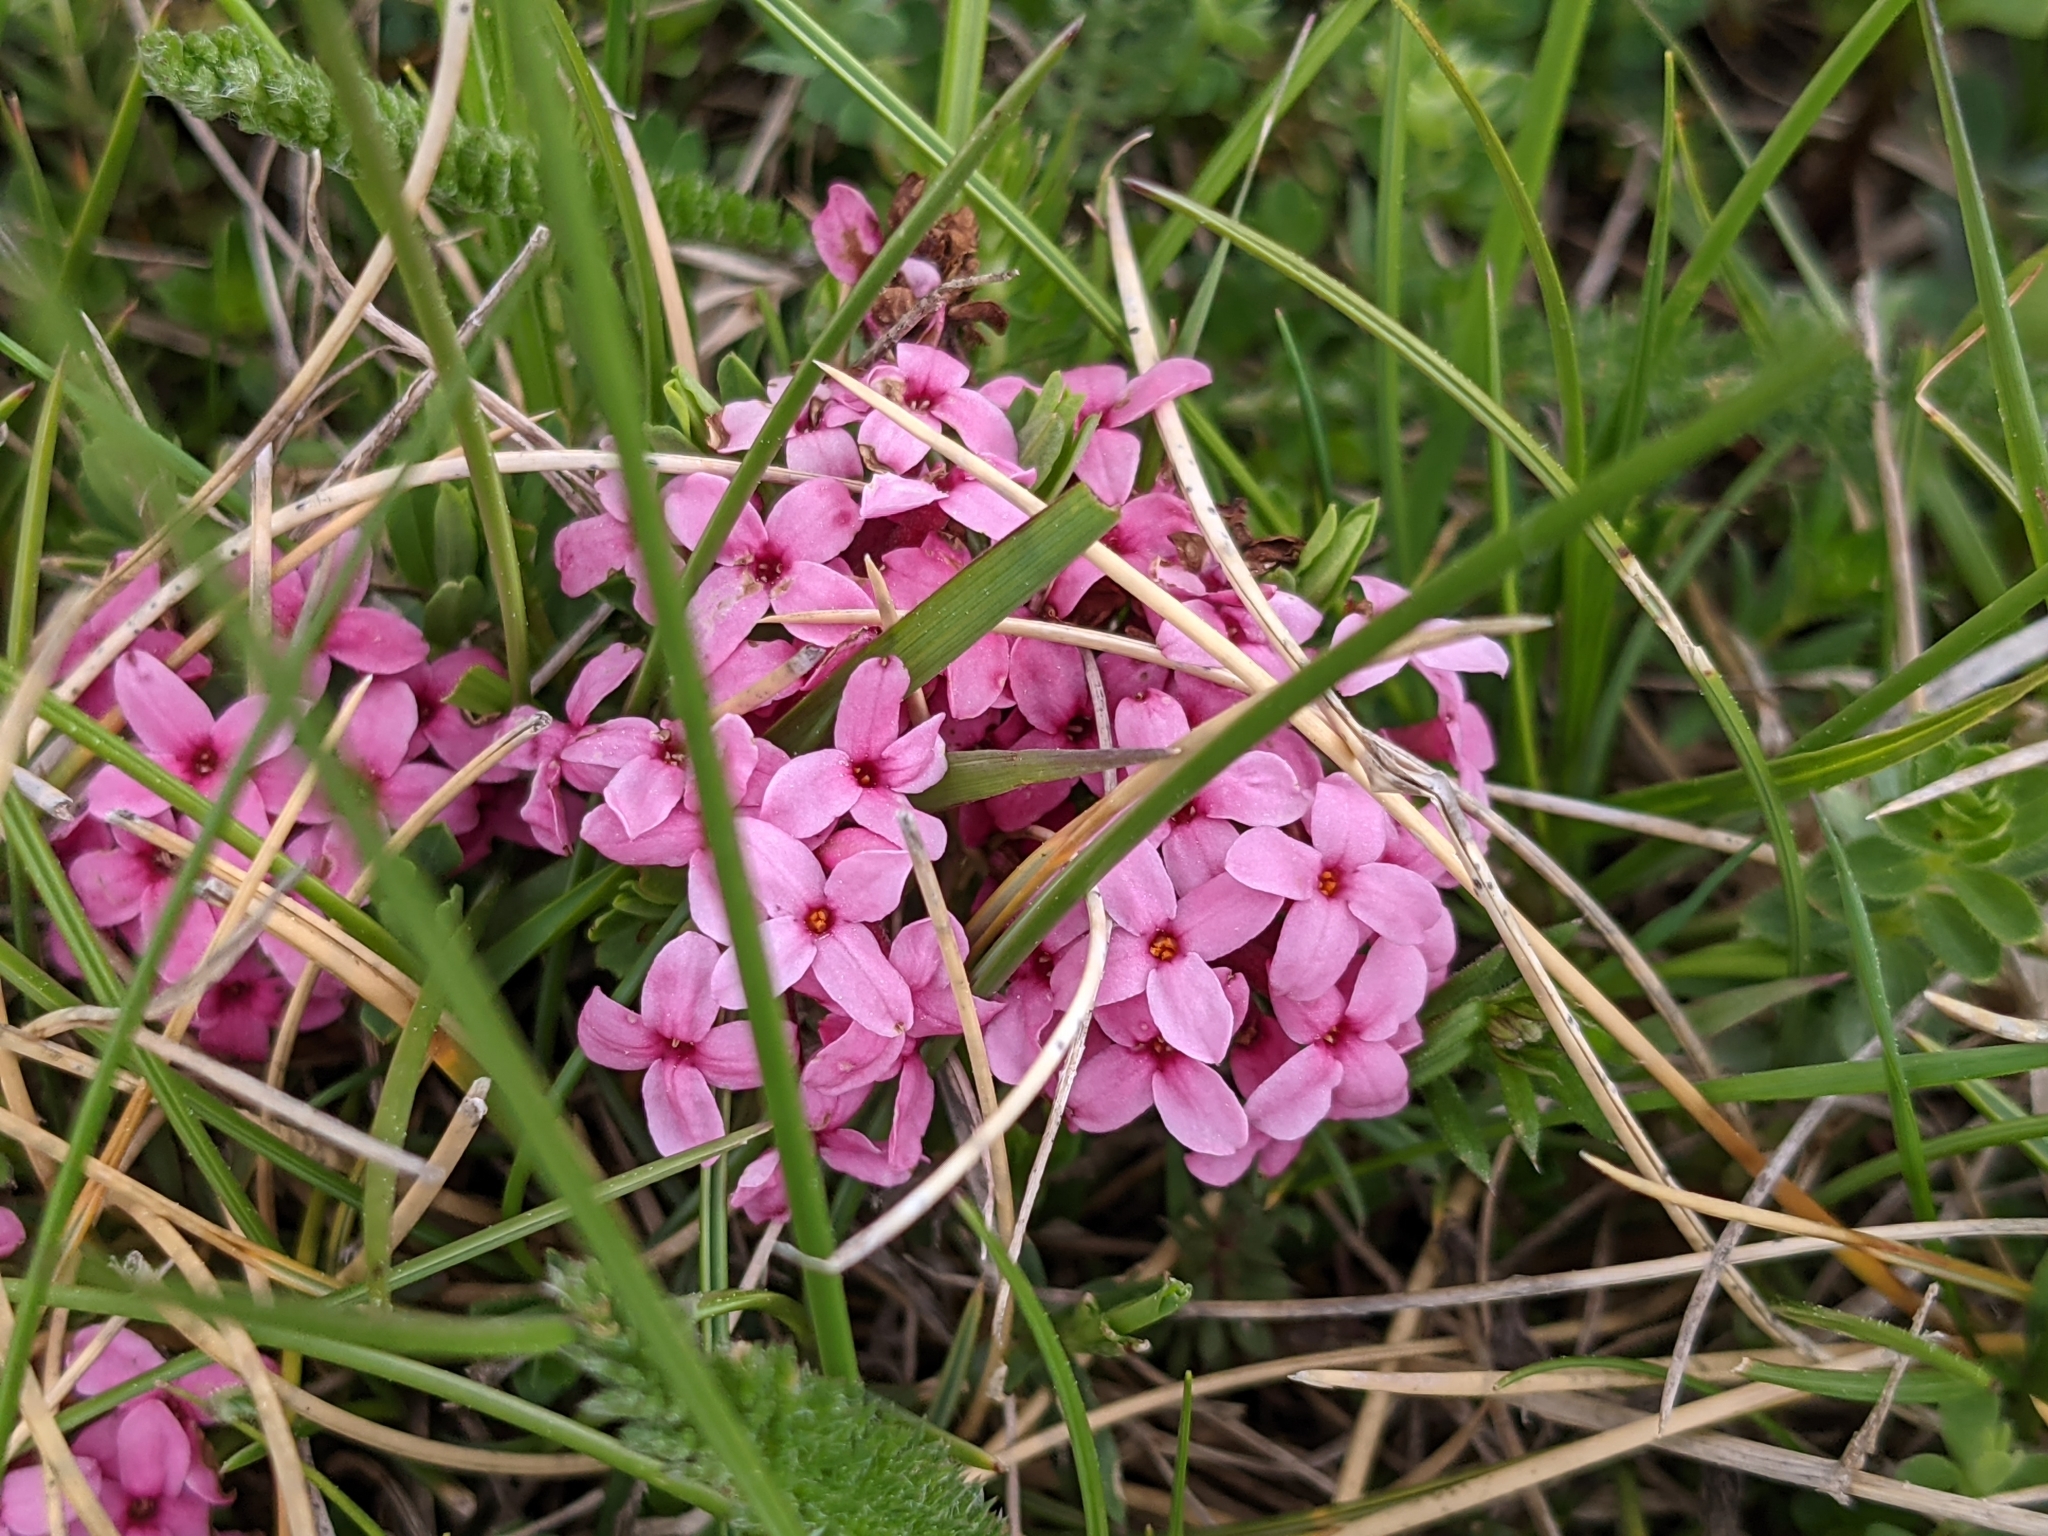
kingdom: Plantae
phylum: Tracheophyta
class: Magnoliopsida
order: Malvales
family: Thymelaeaceae
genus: Daphne
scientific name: Daphne cneorum
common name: Garland-flower
